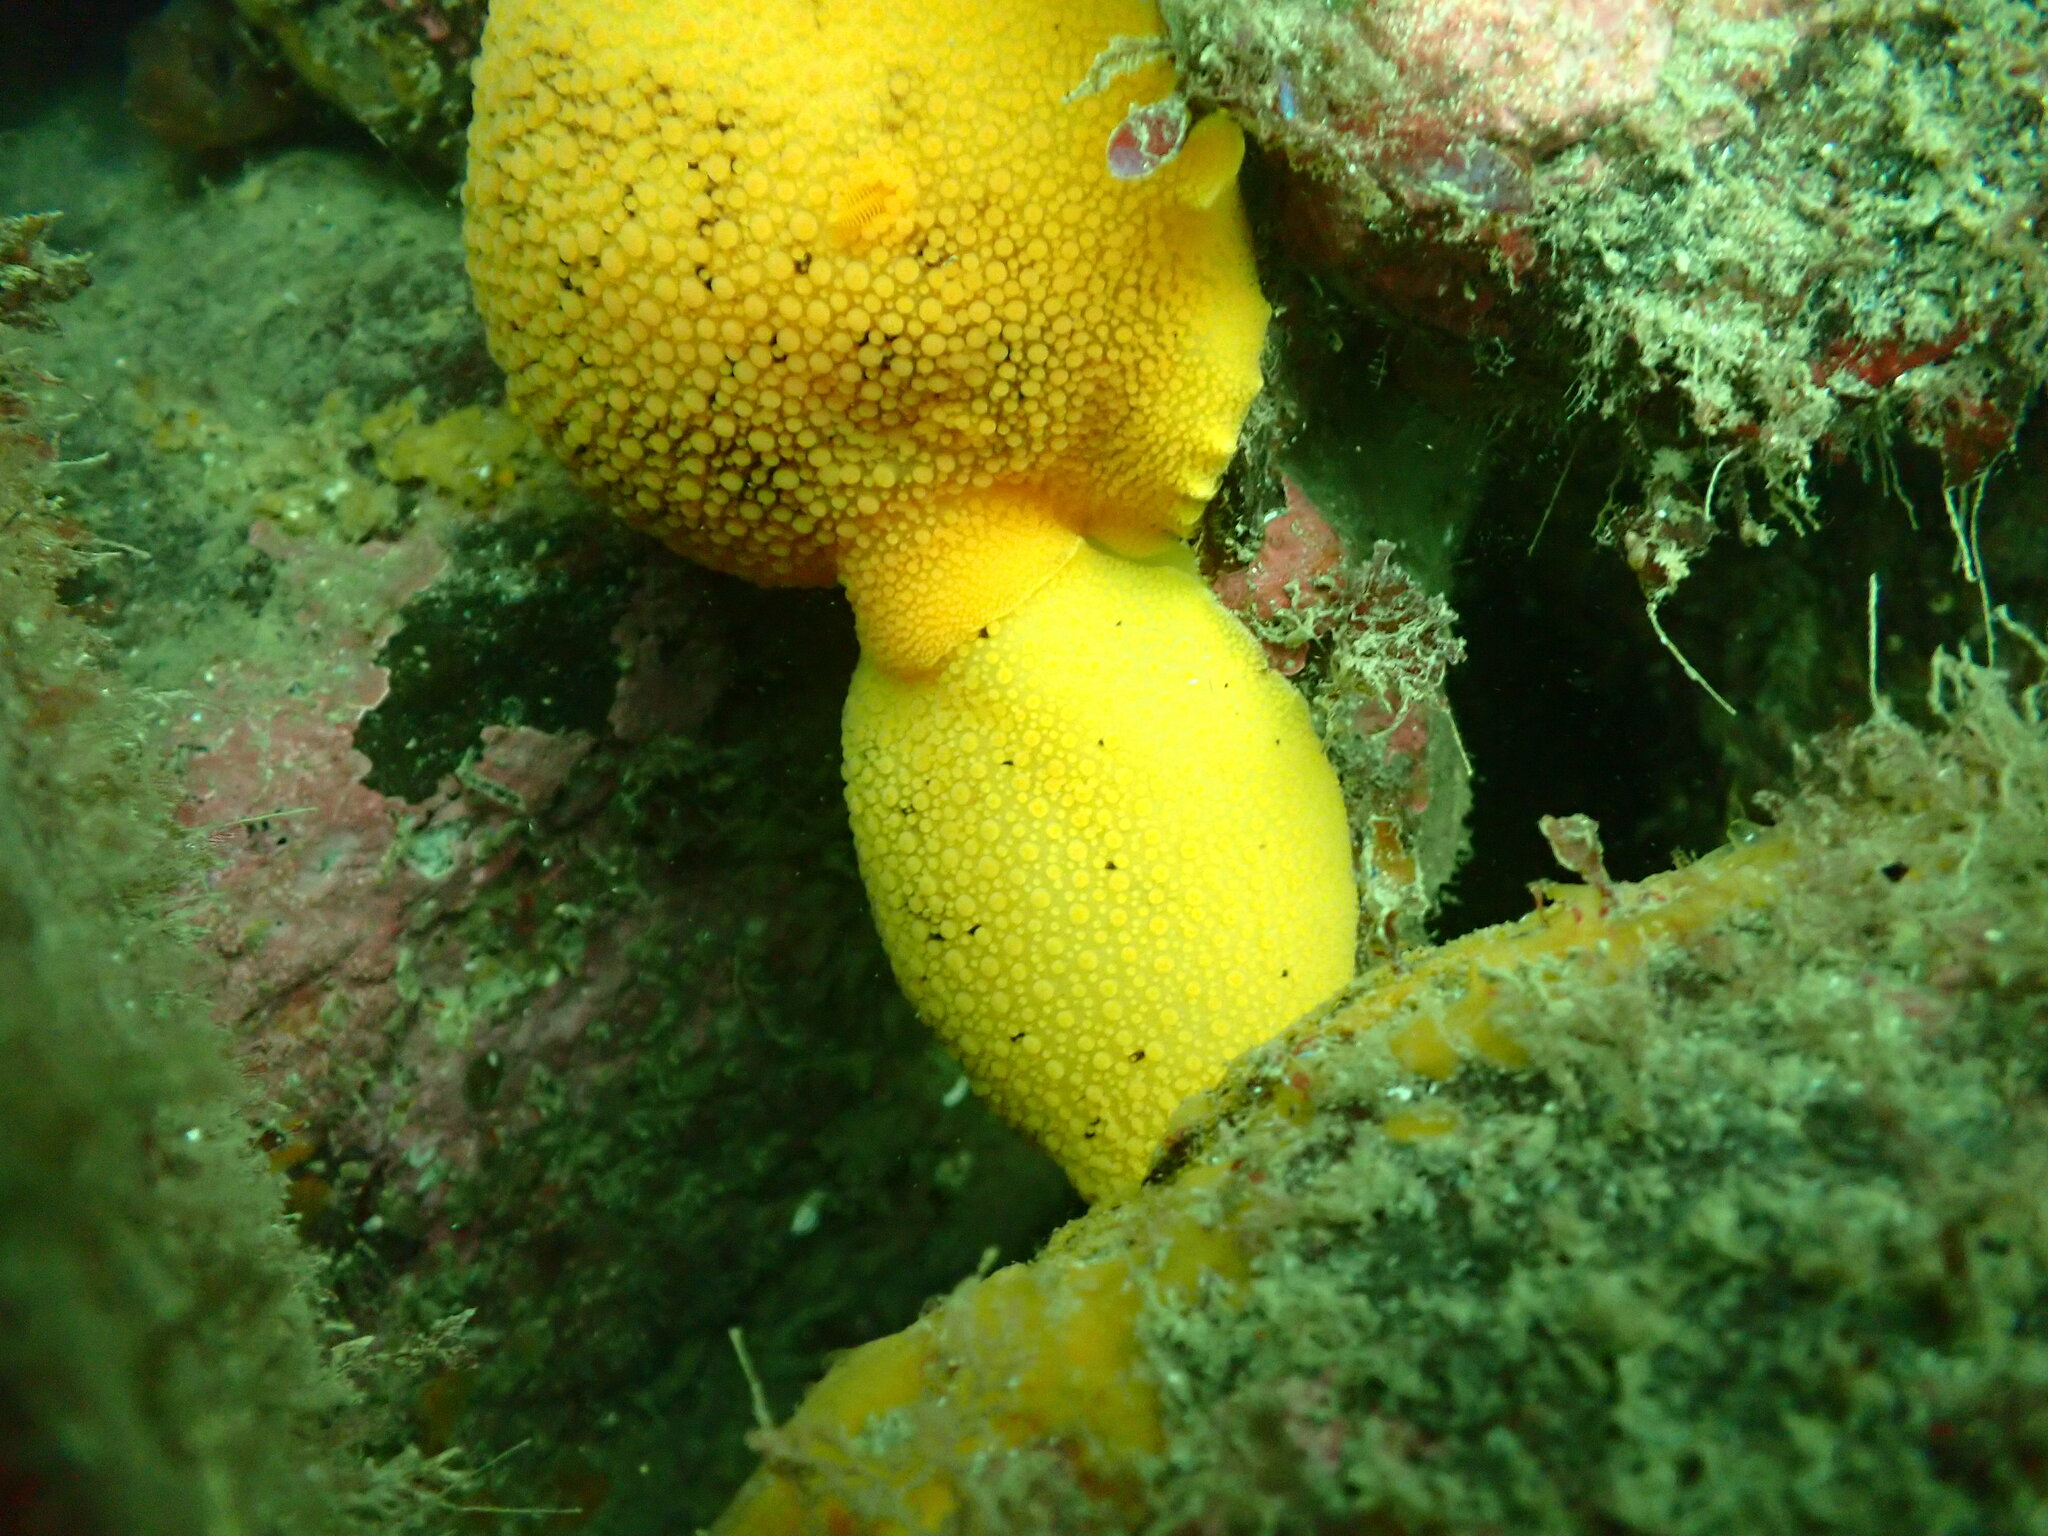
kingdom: Animalia
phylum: Mollusca
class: Gastropoda
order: Nudibranchia
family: Discodorididae
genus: Peltodoris
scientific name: Peltodoris nobilis
